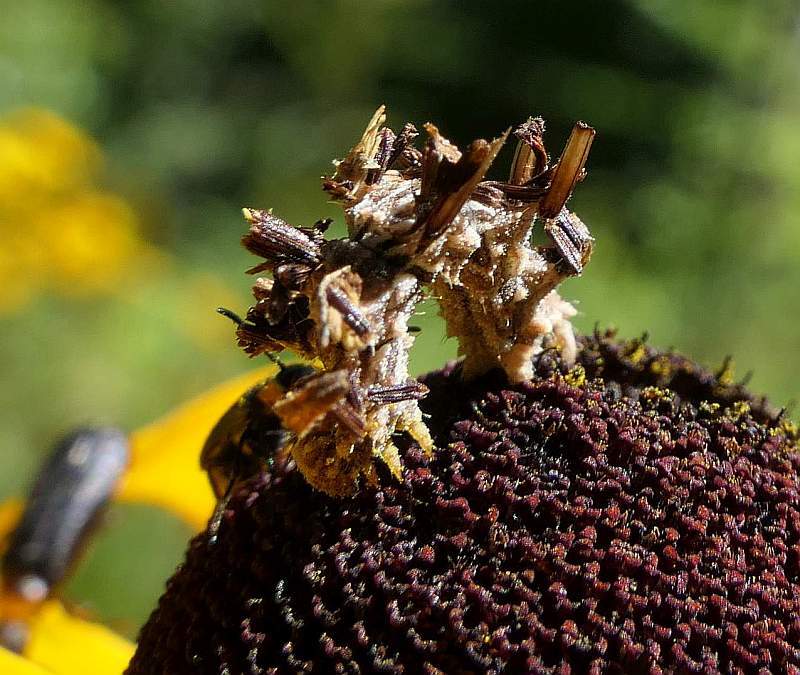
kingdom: Animalia
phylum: Arthropoda
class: Insecta
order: Lepidoptera
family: Geometridae
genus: Synchlora
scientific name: Synchlora aerata
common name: Wavy-lined emerald
